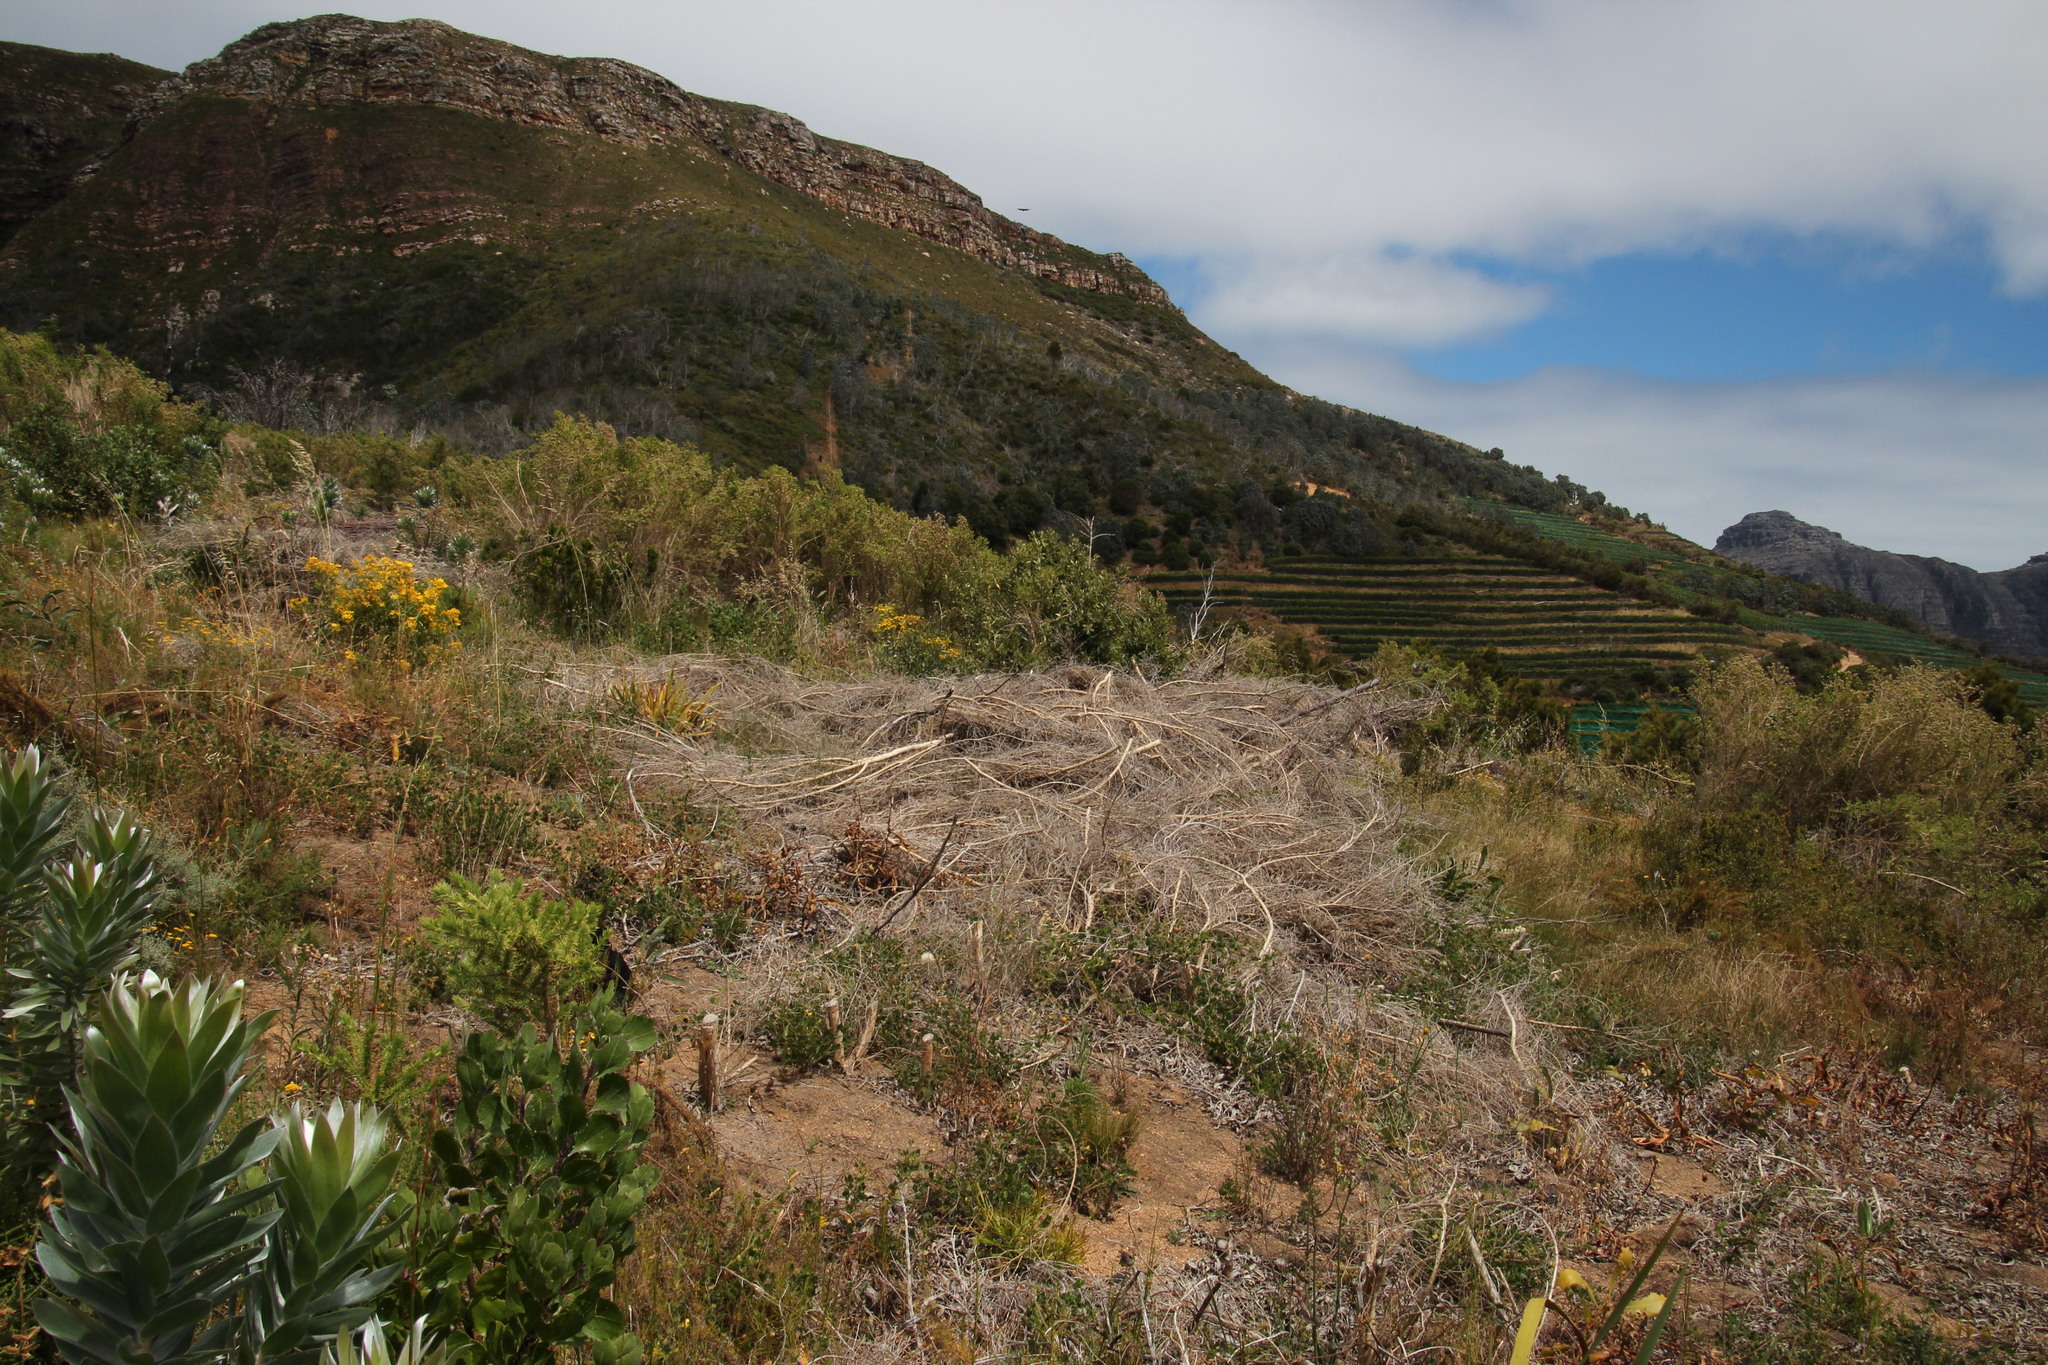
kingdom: Plantae
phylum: Tracheophyta
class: Magnoliopsida
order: Fabales
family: Fabaceae
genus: Aspalathus
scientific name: Aspalathus chenopoda
